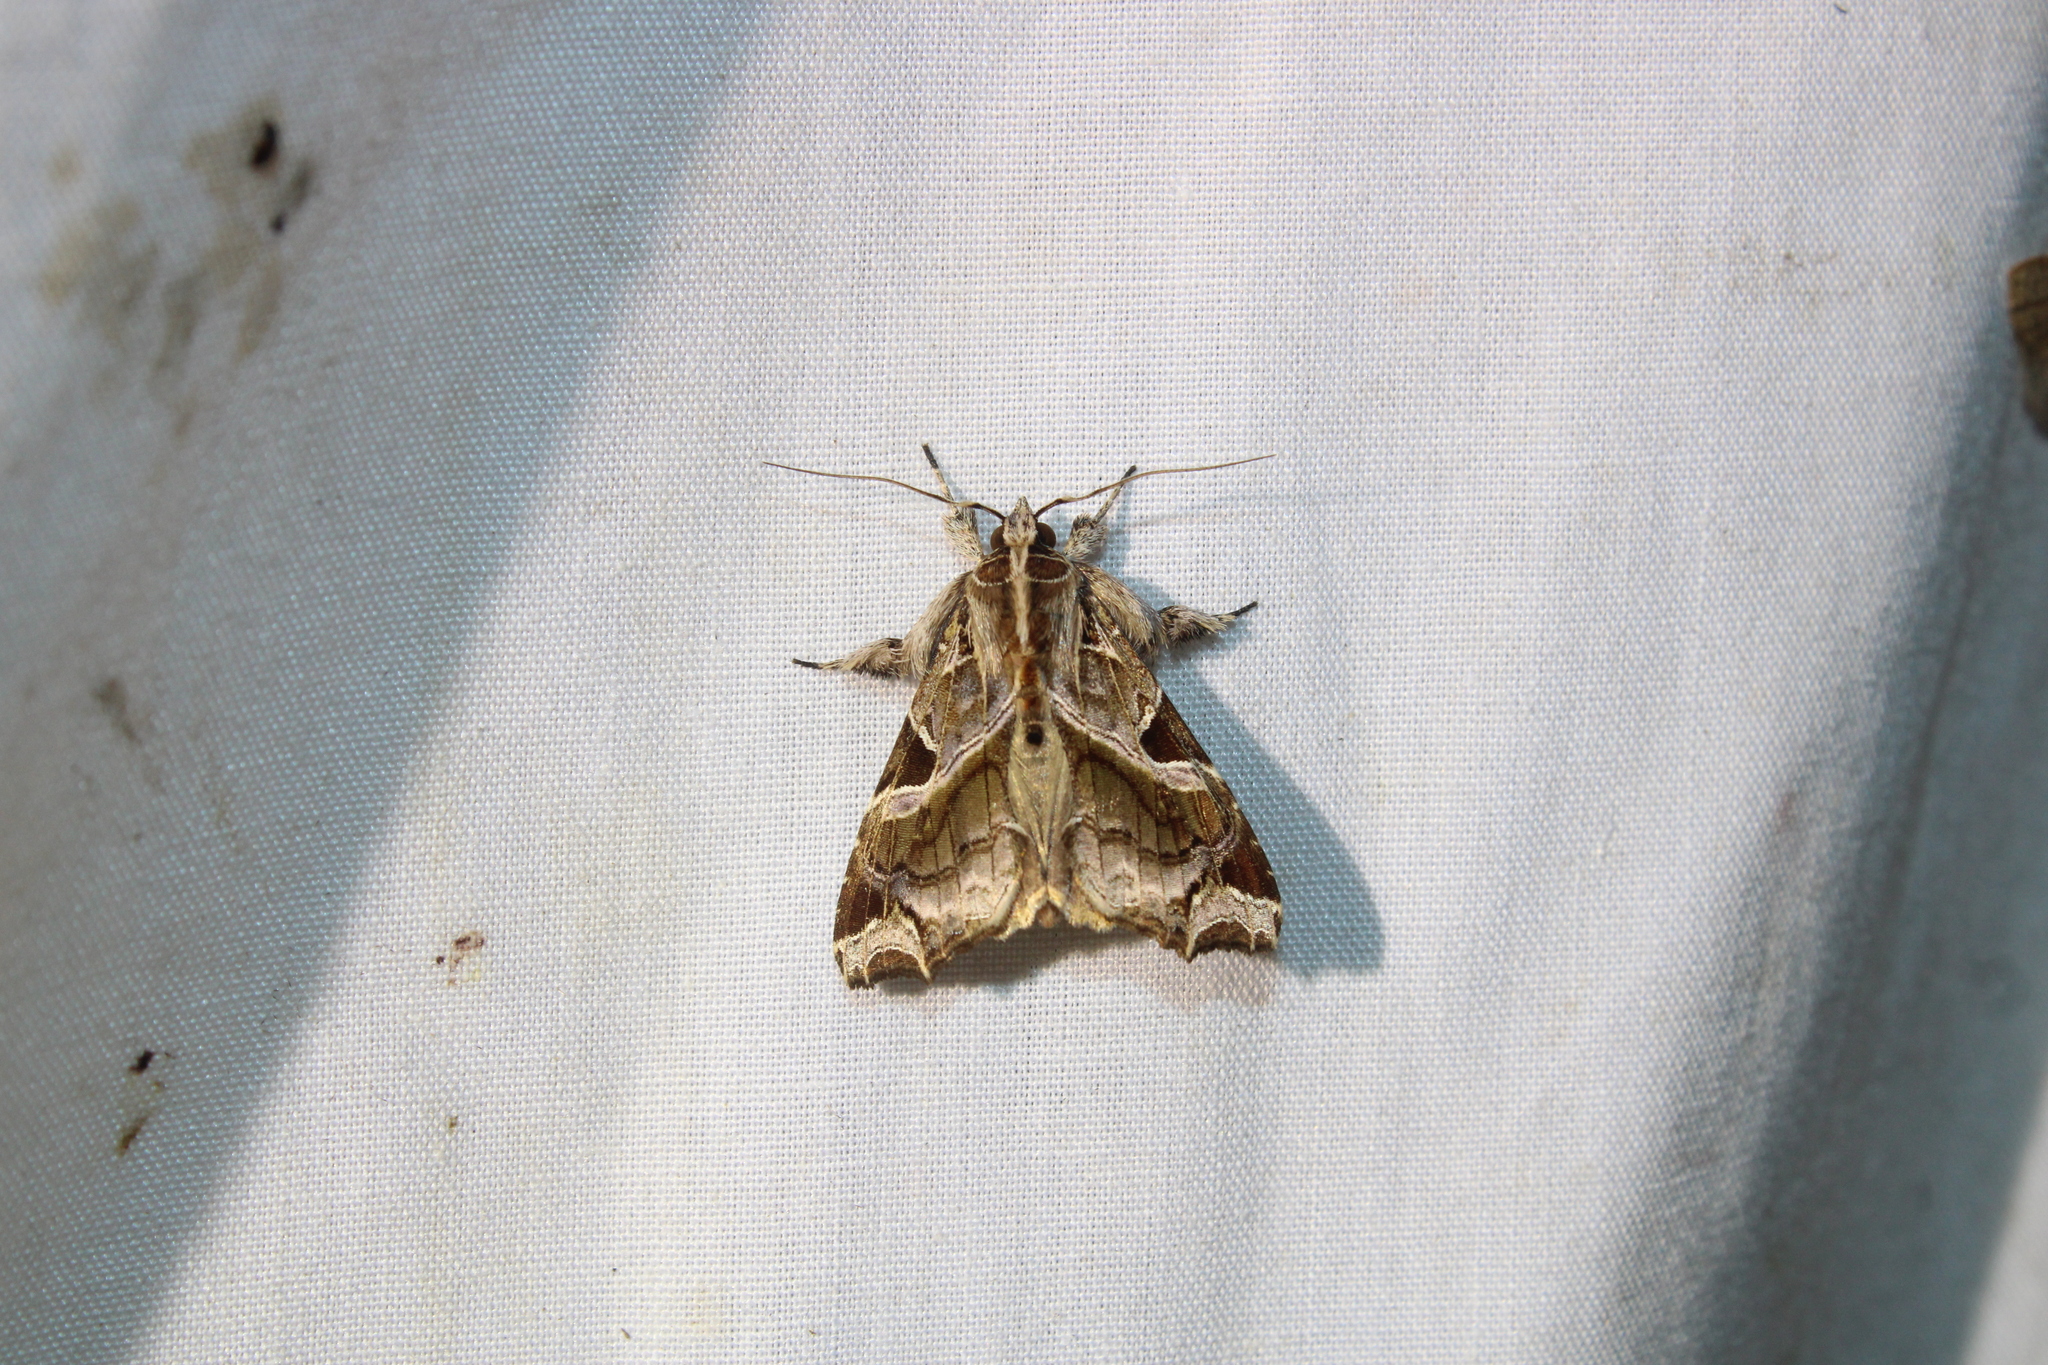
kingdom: Animalia
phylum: Arthropoda
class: Insecta
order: Lepidoptera
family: Noctuidae
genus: Callopistria
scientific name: Callopistria floridensis
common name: Florida fern moth
